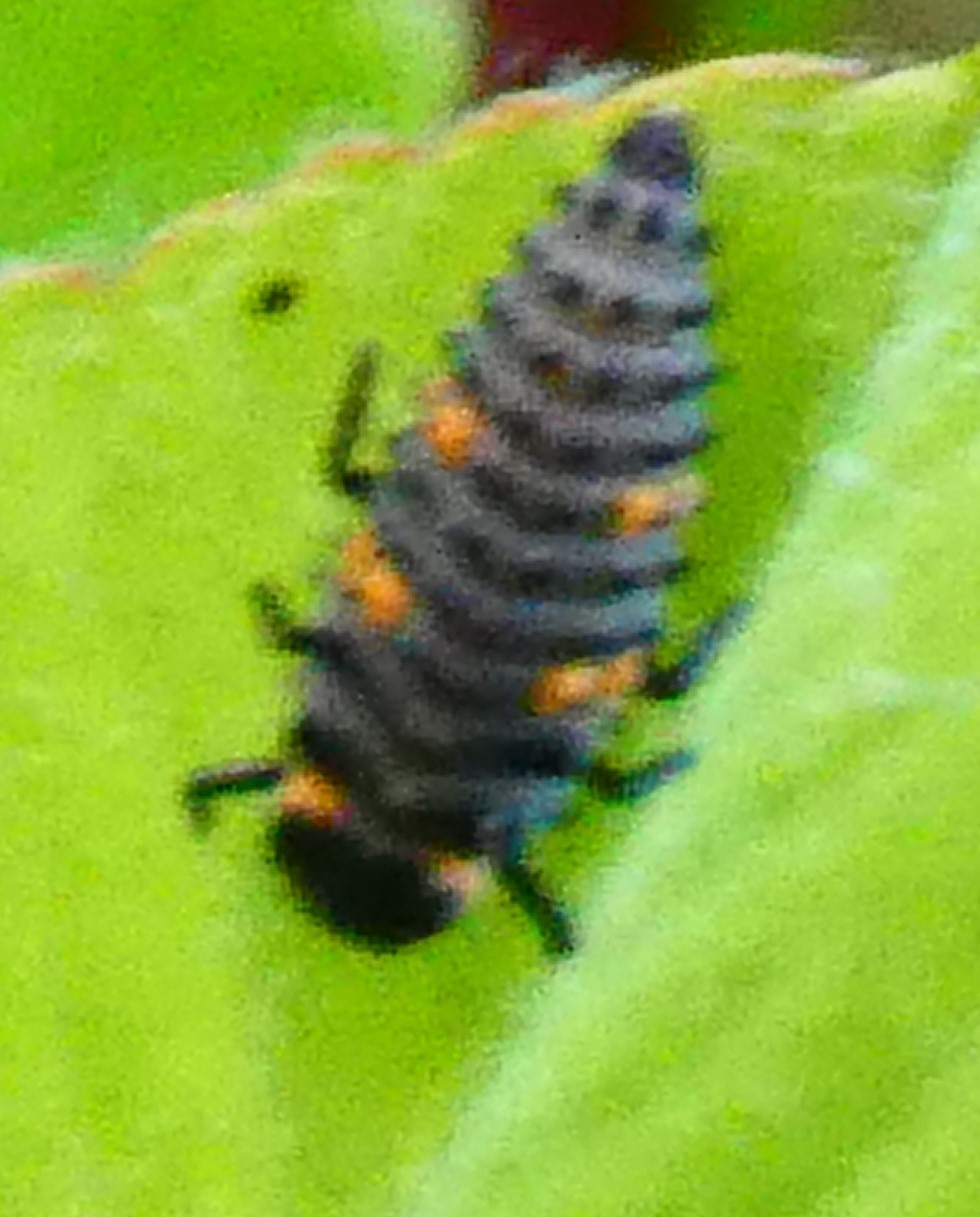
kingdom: Animalia
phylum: Arthropoda
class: Insecta
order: Coleoptera
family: Coccinellidae
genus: Coccinella
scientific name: Coccinella septempunctata
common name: Sevenspotted lady beetle
